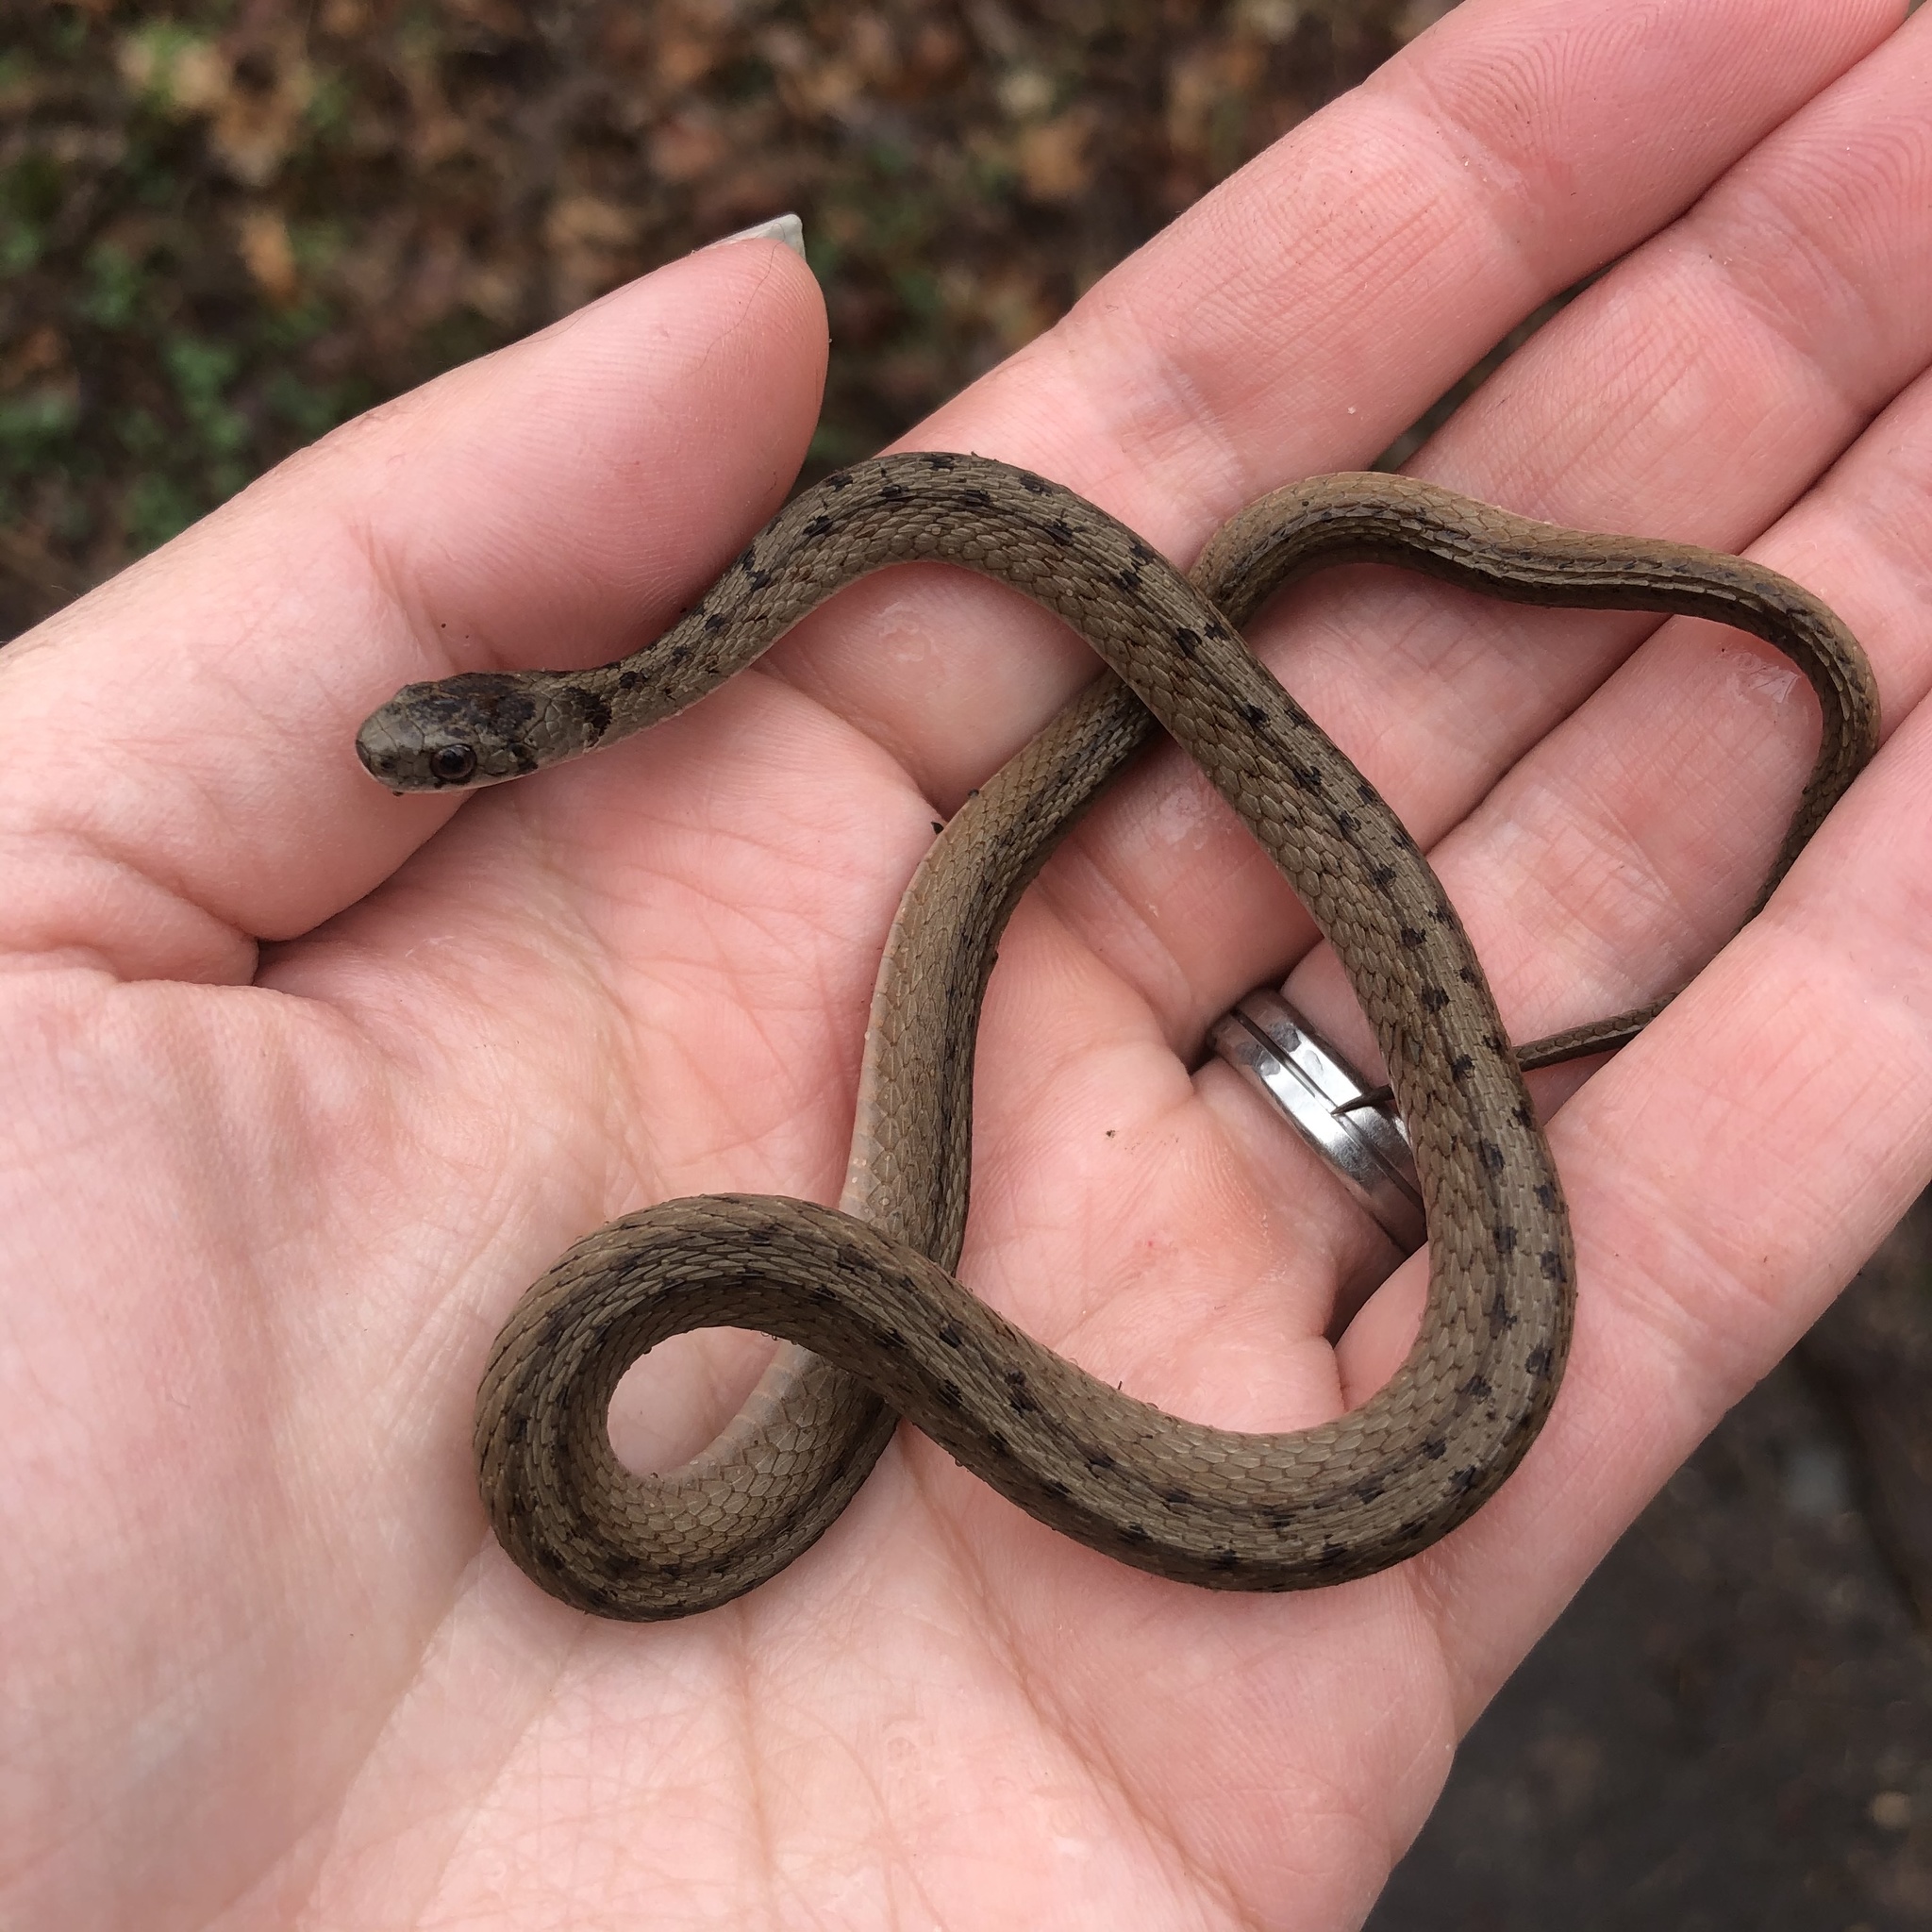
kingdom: Animalia
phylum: Chordata
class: Squamata
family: Colubridae
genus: Storeria
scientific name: Storeria dekayi
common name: (dekay’s) brown snake
